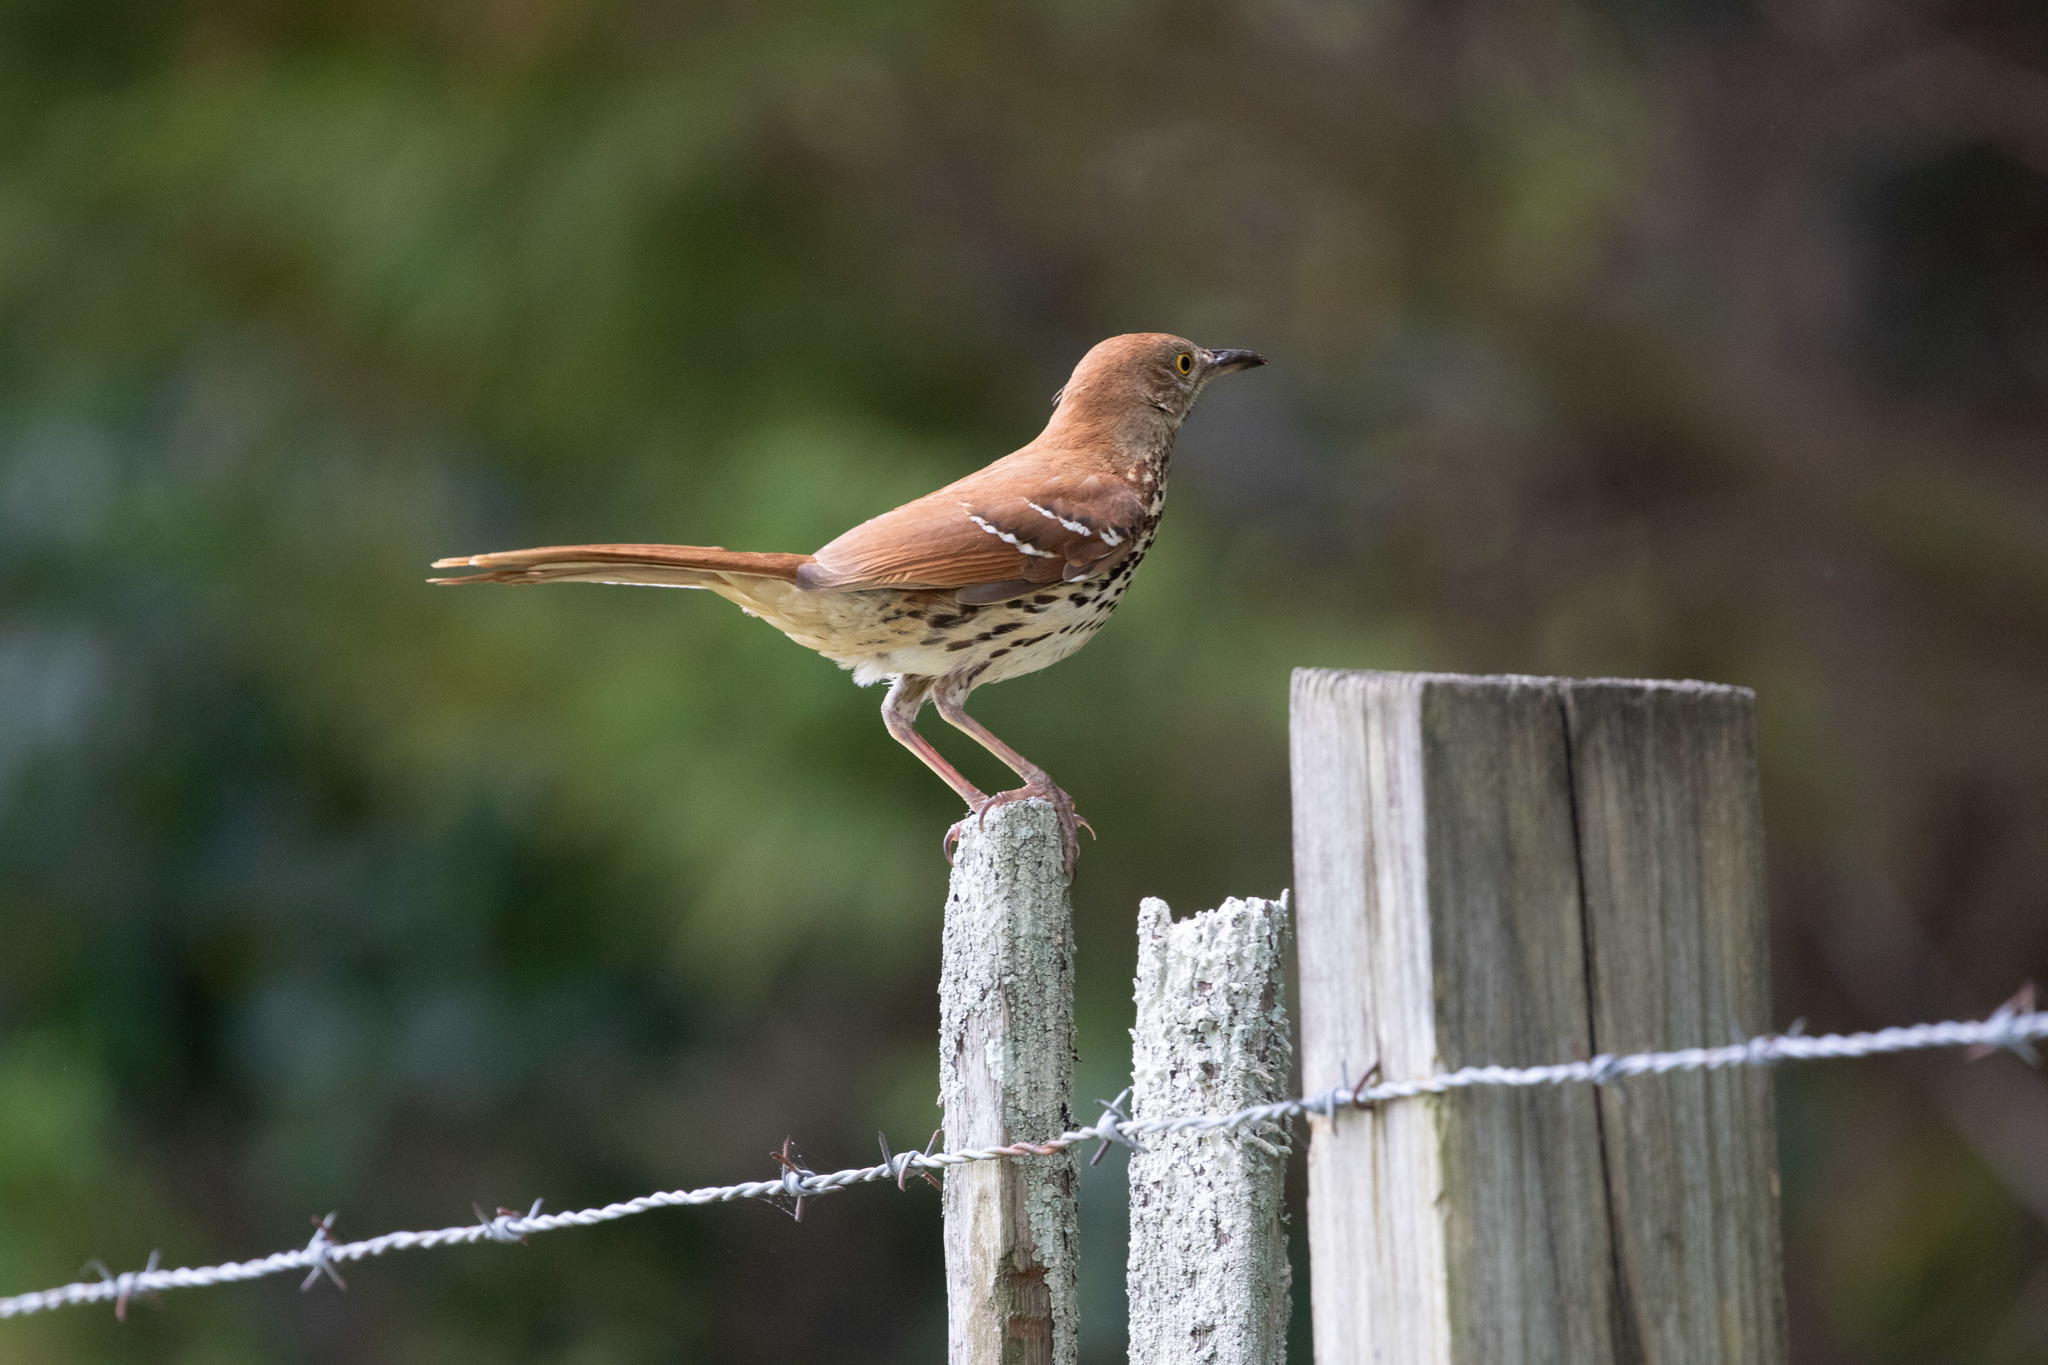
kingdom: Animalia
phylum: Chordata
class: Aves
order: Passeriformes
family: Mimidae
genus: Toxostoma
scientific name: Toxostoma rufum
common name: Brown thrasher
